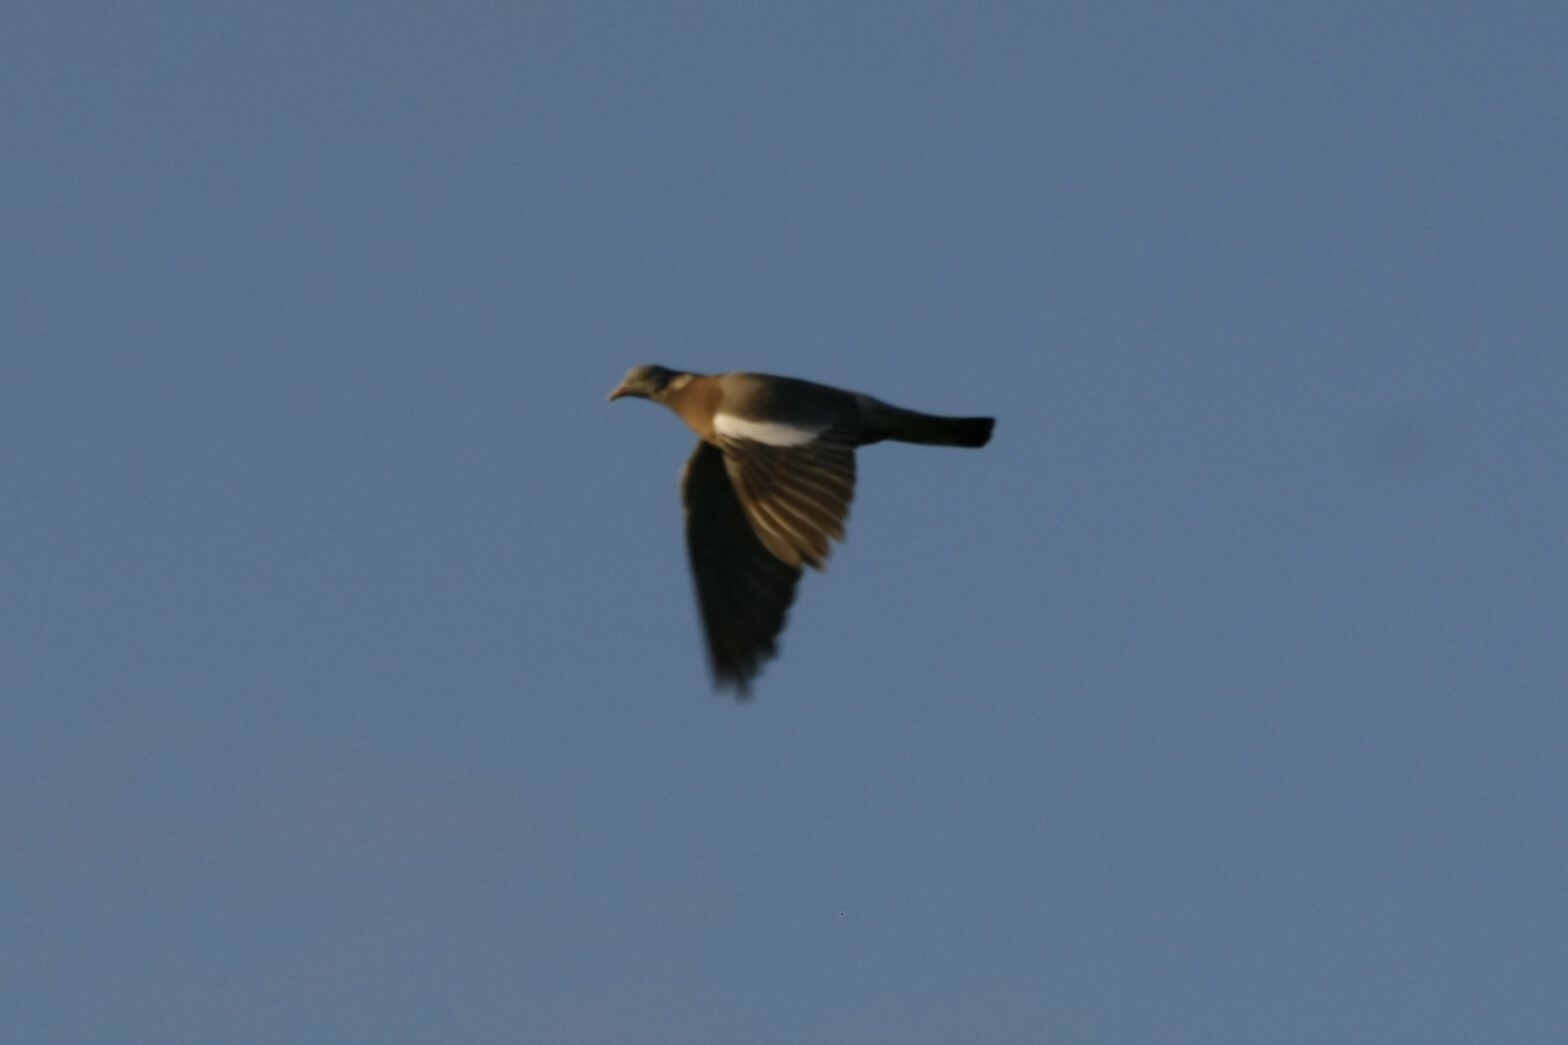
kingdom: Animalia
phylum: Chordata
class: Aves
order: Columbiformes
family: Columbidae
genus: Columba
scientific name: Columba palumbus
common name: Common wood pigeon
